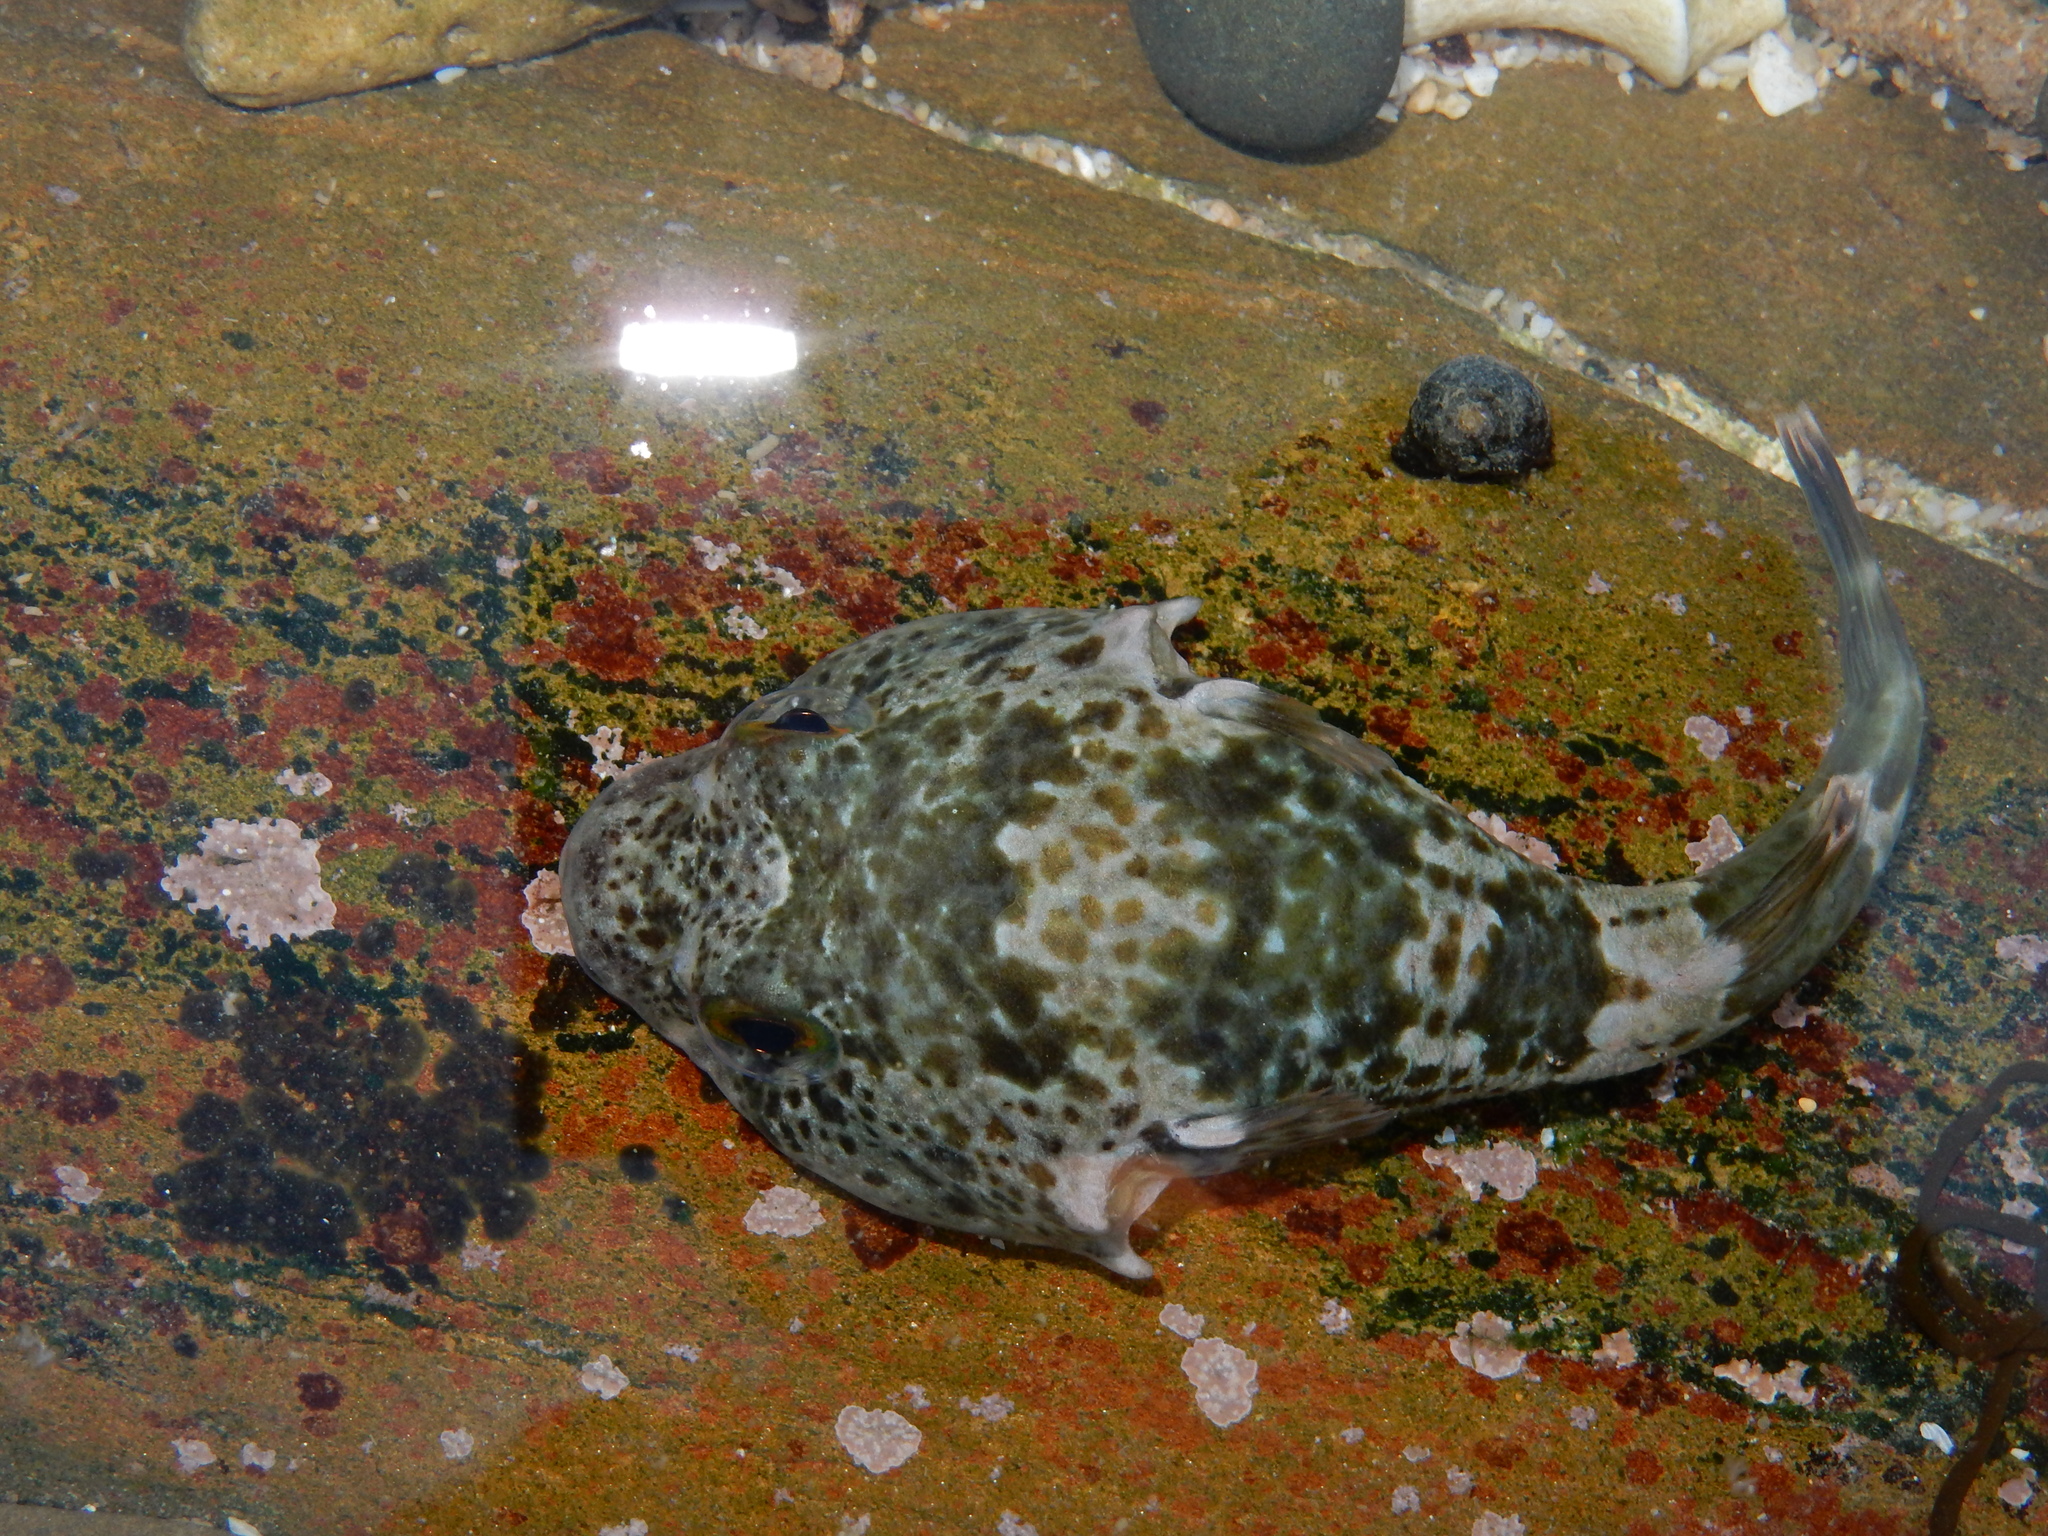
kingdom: Animalia
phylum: Chordata
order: Gobiesociformes
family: Gobiesocidae
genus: Chorisochismus
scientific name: Chorisochismus dentex
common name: Rocksucker
